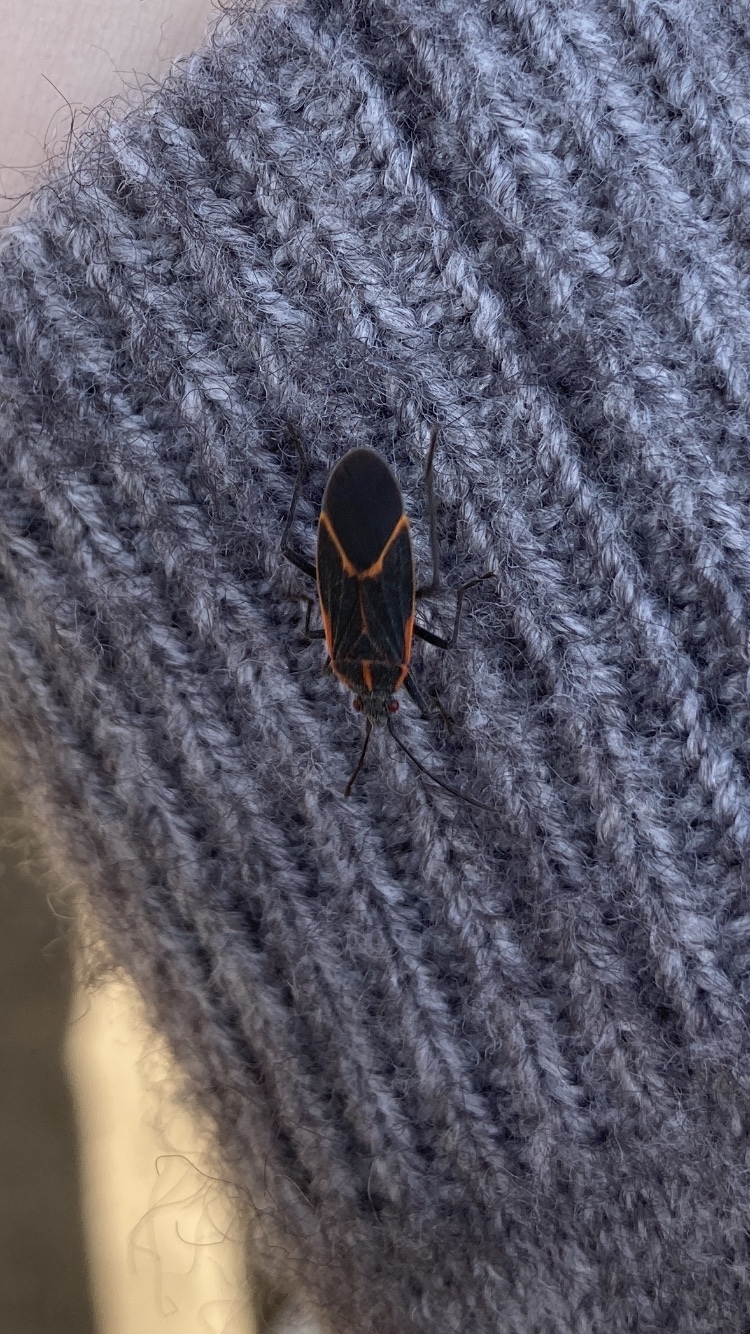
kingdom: Animalia
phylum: Arthropoda
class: Insecta
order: Hemiptera
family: Rhopalidae
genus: Boisea
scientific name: Boisea trivittata
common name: Boxelder bug
